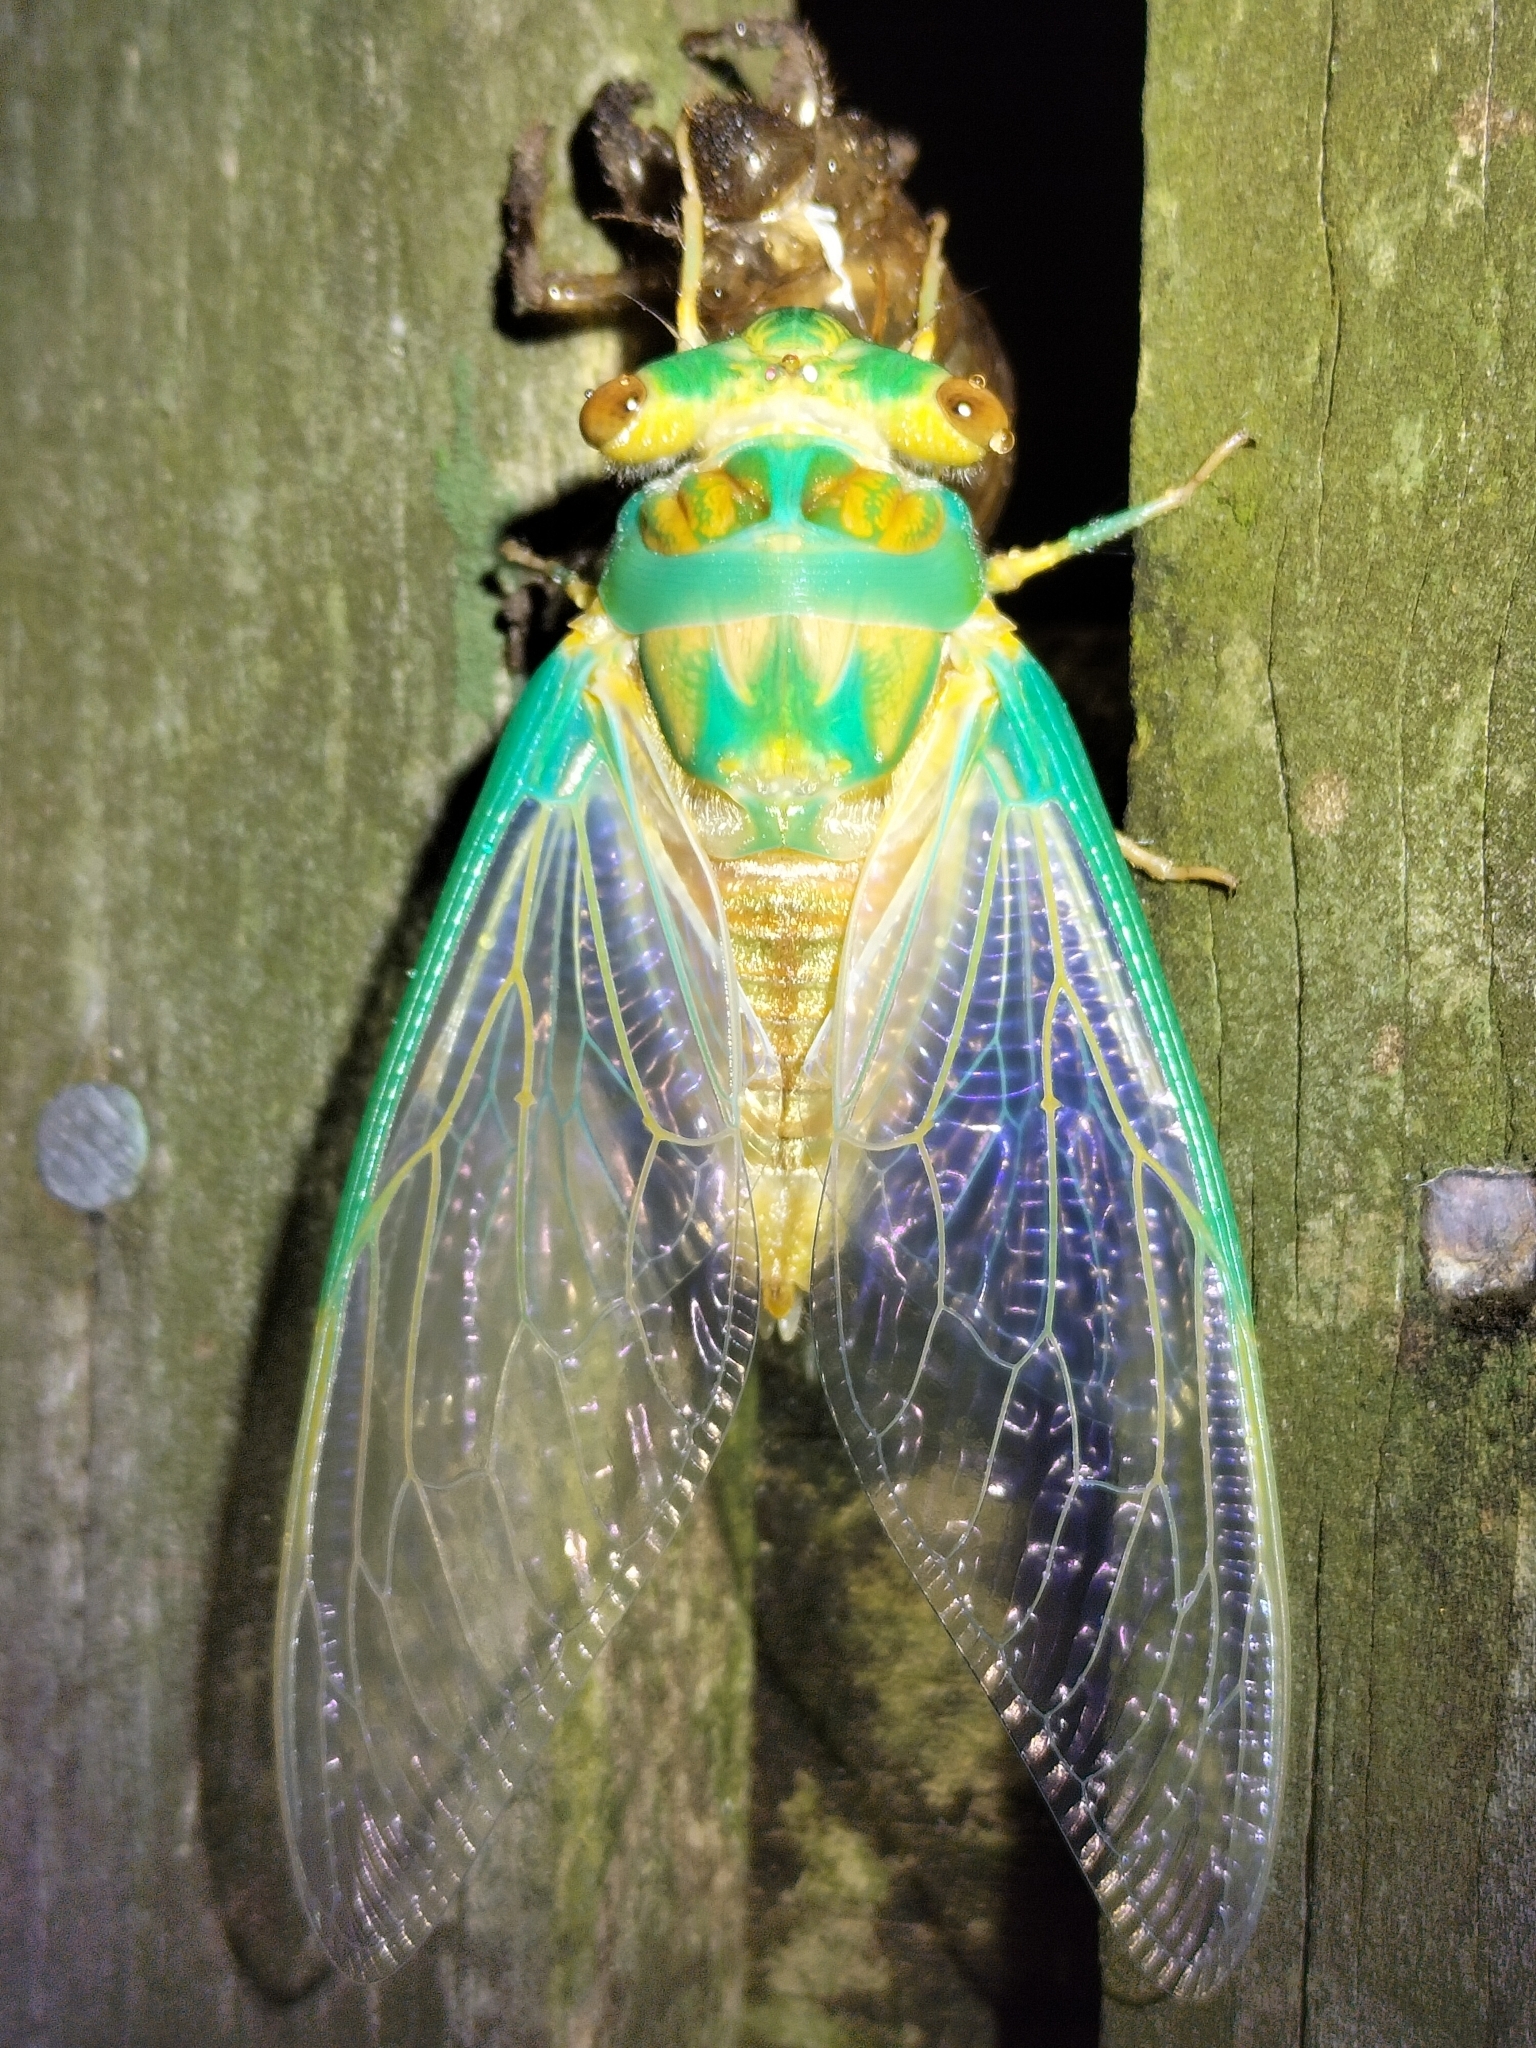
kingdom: Animalia
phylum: Arthropoda
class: Insecta
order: Hemiptera
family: Cicadidae
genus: Macrotristria
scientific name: Macrotristria sylvara
